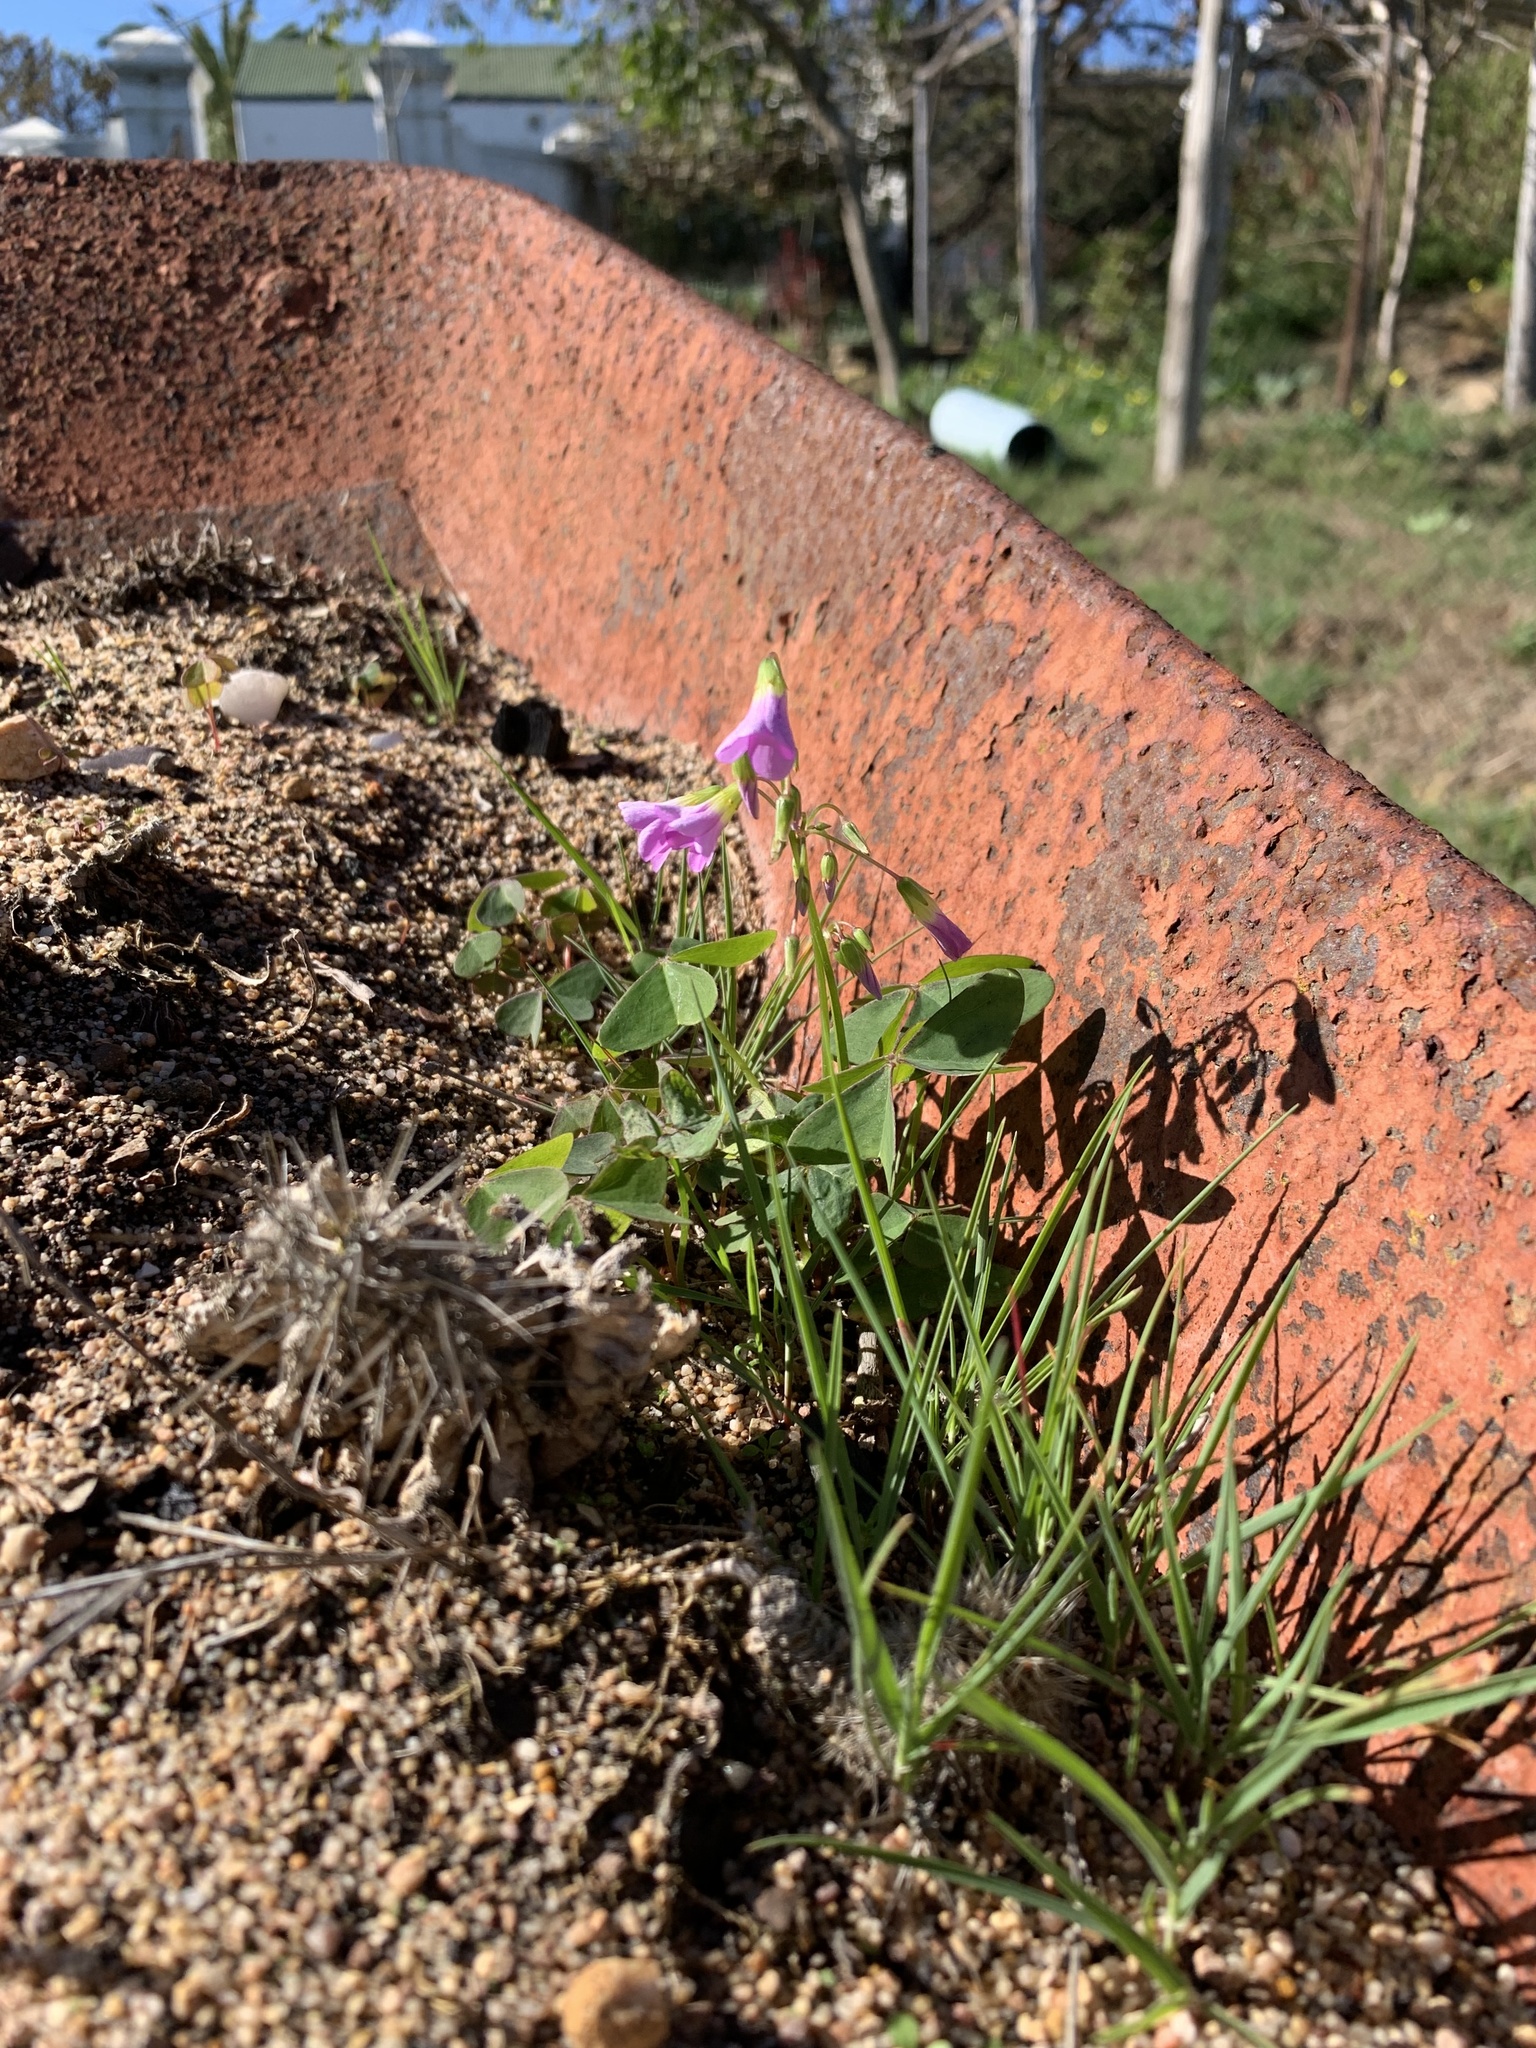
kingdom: Plantae
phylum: Tracheophyta
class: Magnoliopsida
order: Oxalidales
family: Oxalidaceae
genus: Oxalis
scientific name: Oxalis latifolia
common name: Garden pink-sorrel
